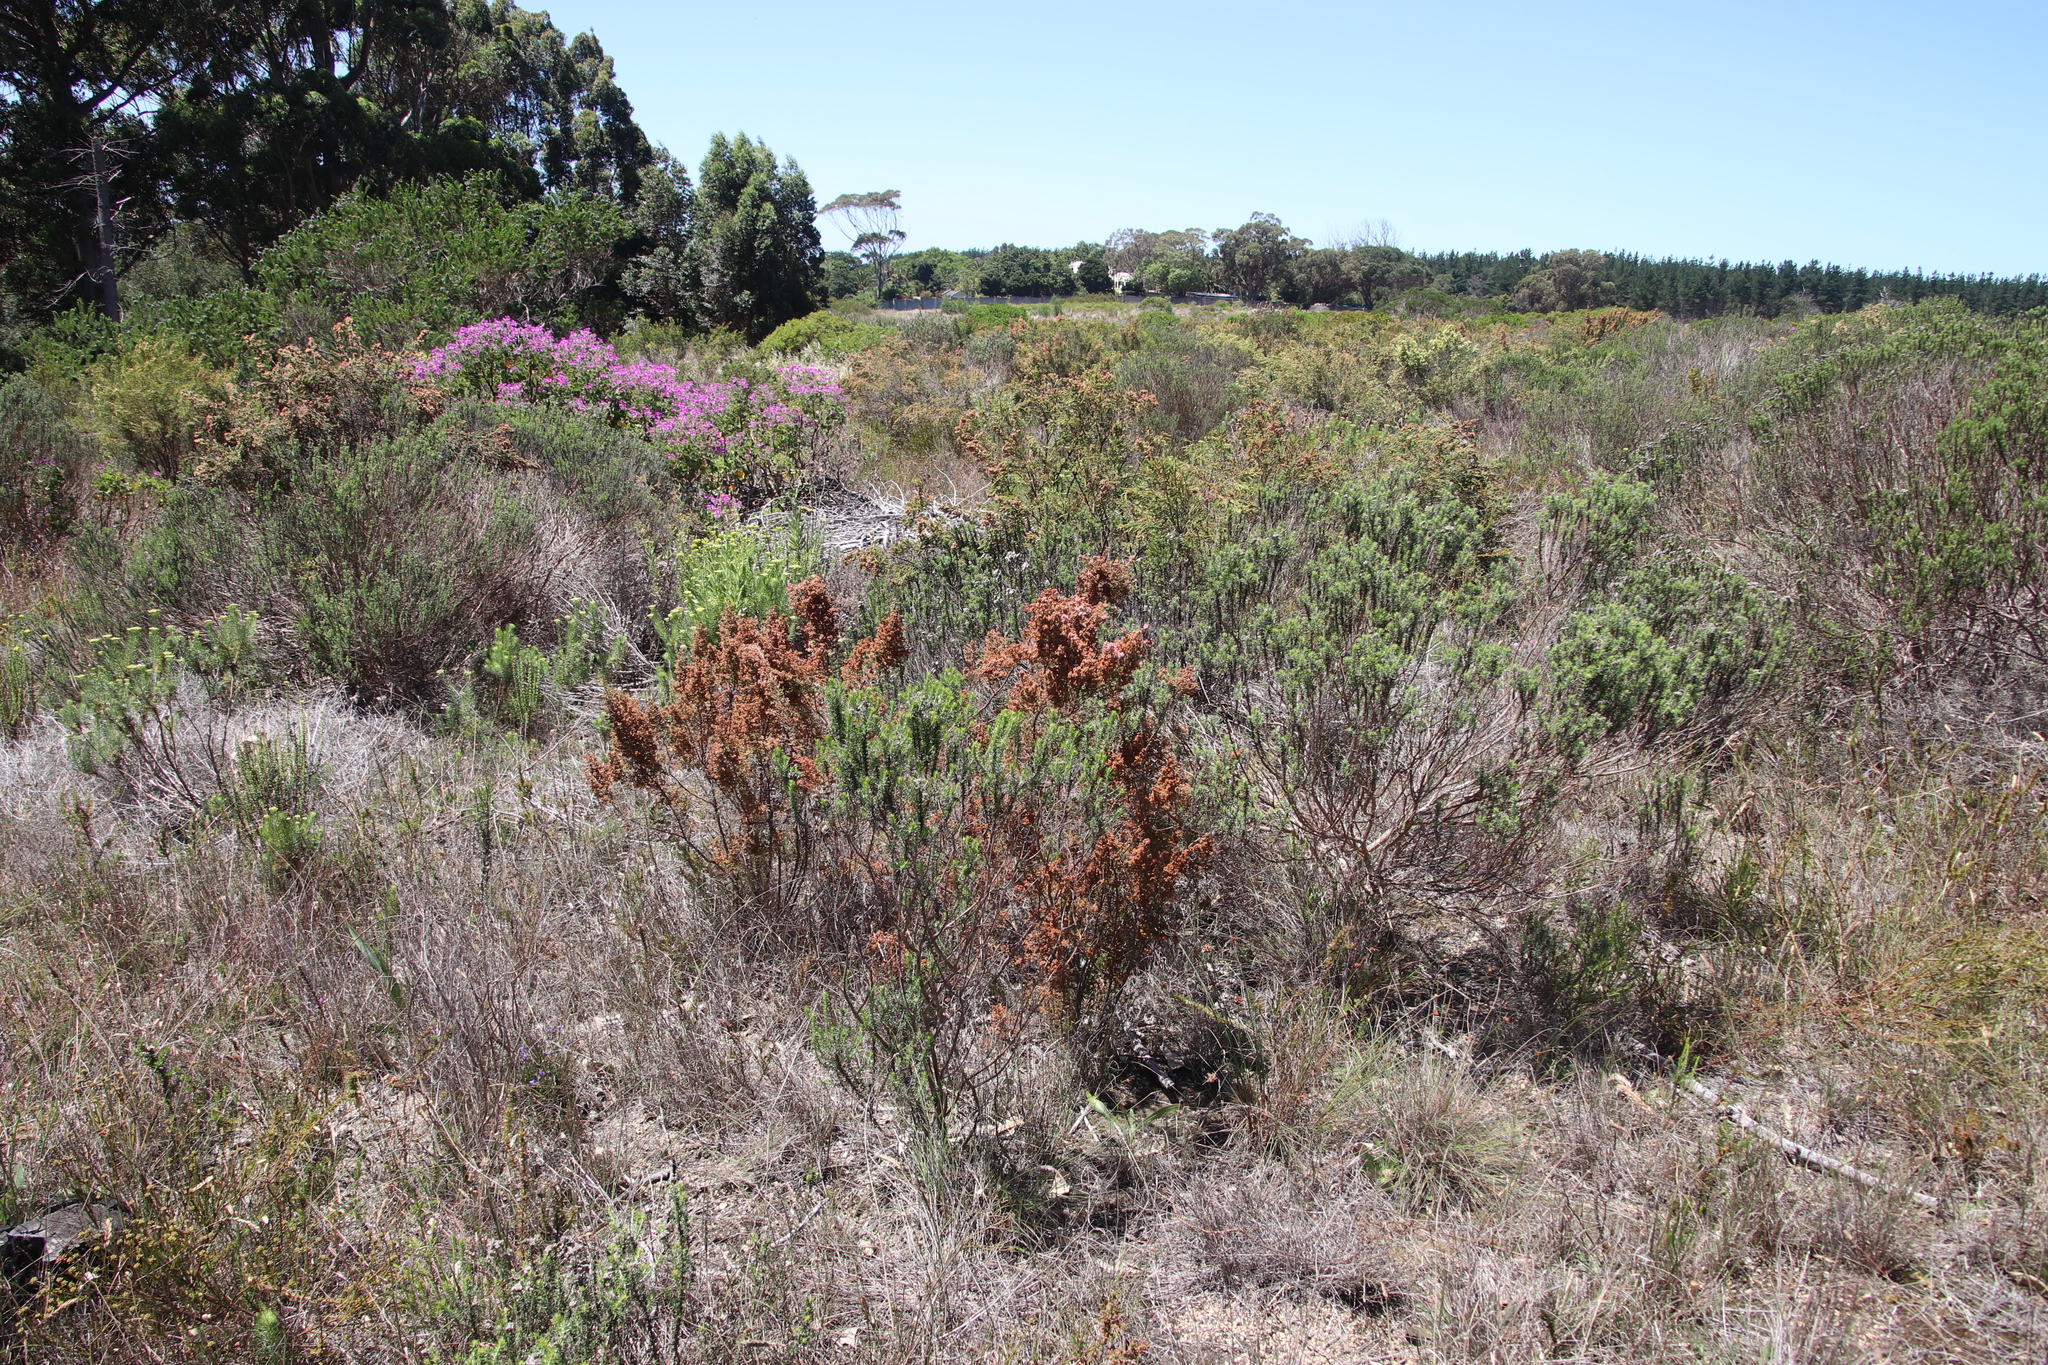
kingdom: Plantae
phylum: Tracheophyta
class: Magnoliopsida
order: Ericales
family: Ericaceae
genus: Erica
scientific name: Erica mauritanica
